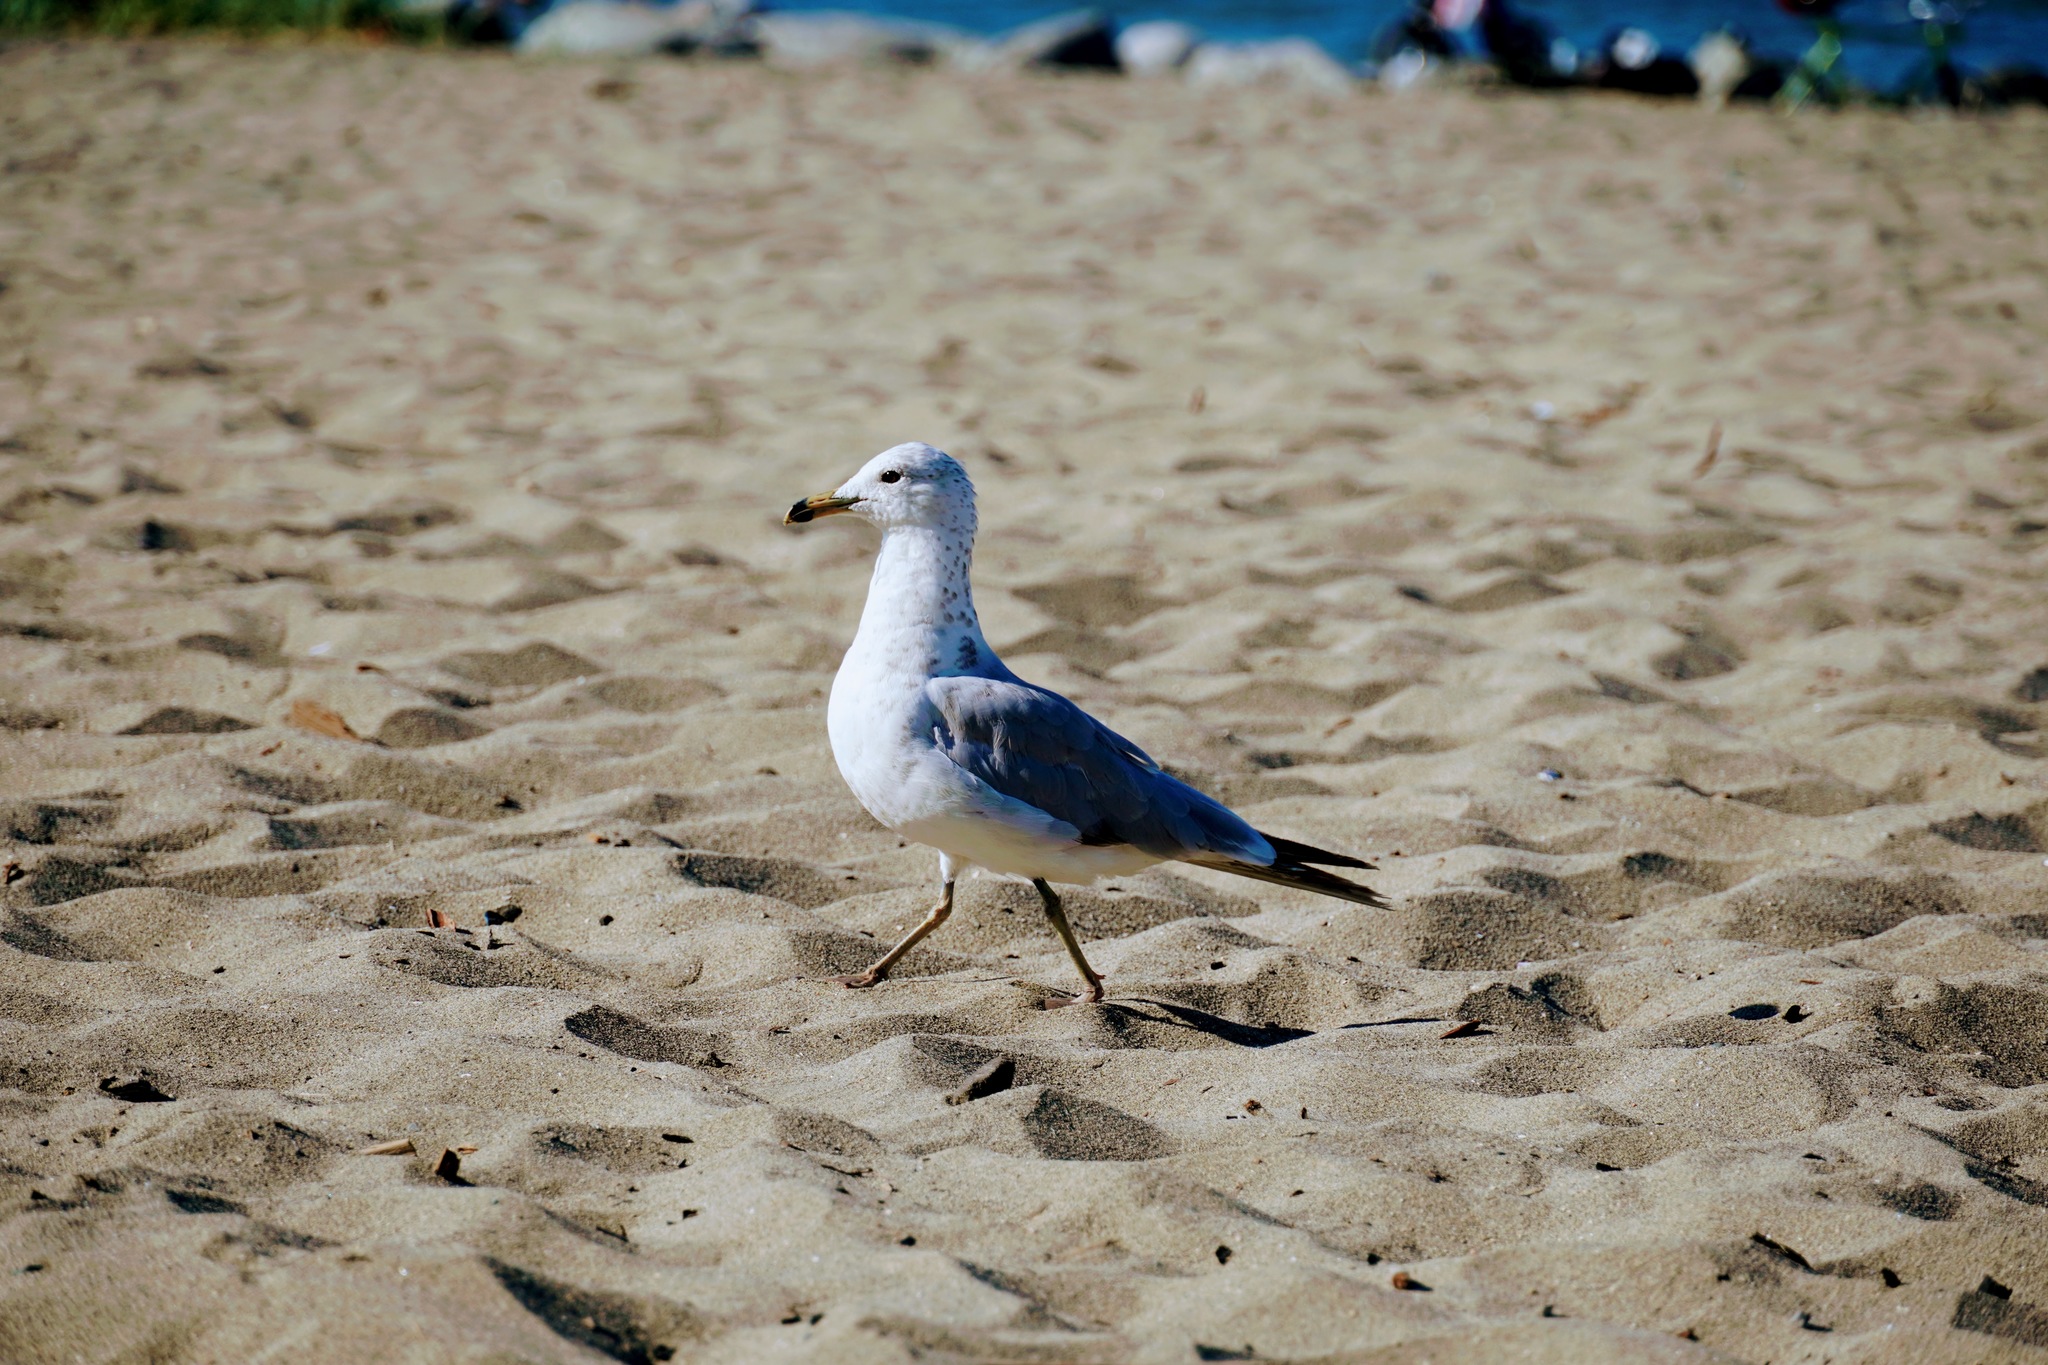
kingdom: Animalia
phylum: Chordata
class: Aves
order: Charadriiformes
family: Laridae
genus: Larus
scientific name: Larus delawarensis
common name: Ring-billed gull
